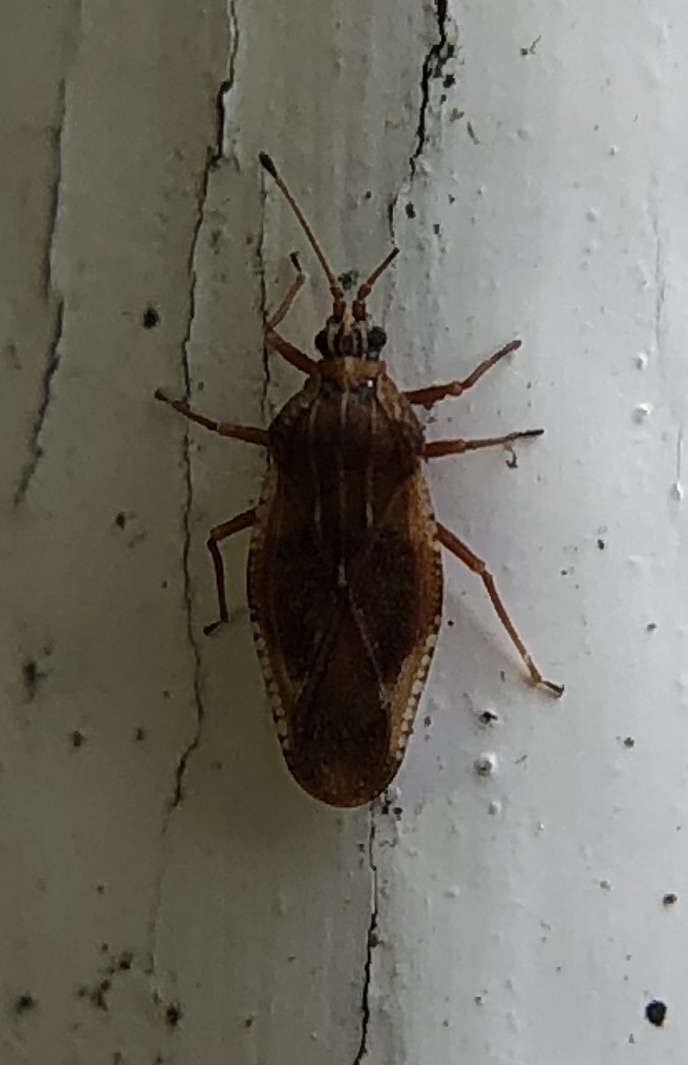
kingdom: Animalia
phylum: Arthropoda
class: Insecta
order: Hemiptera
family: Tingidae
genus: Physatocheila
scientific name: Physatocheila dumetorum
